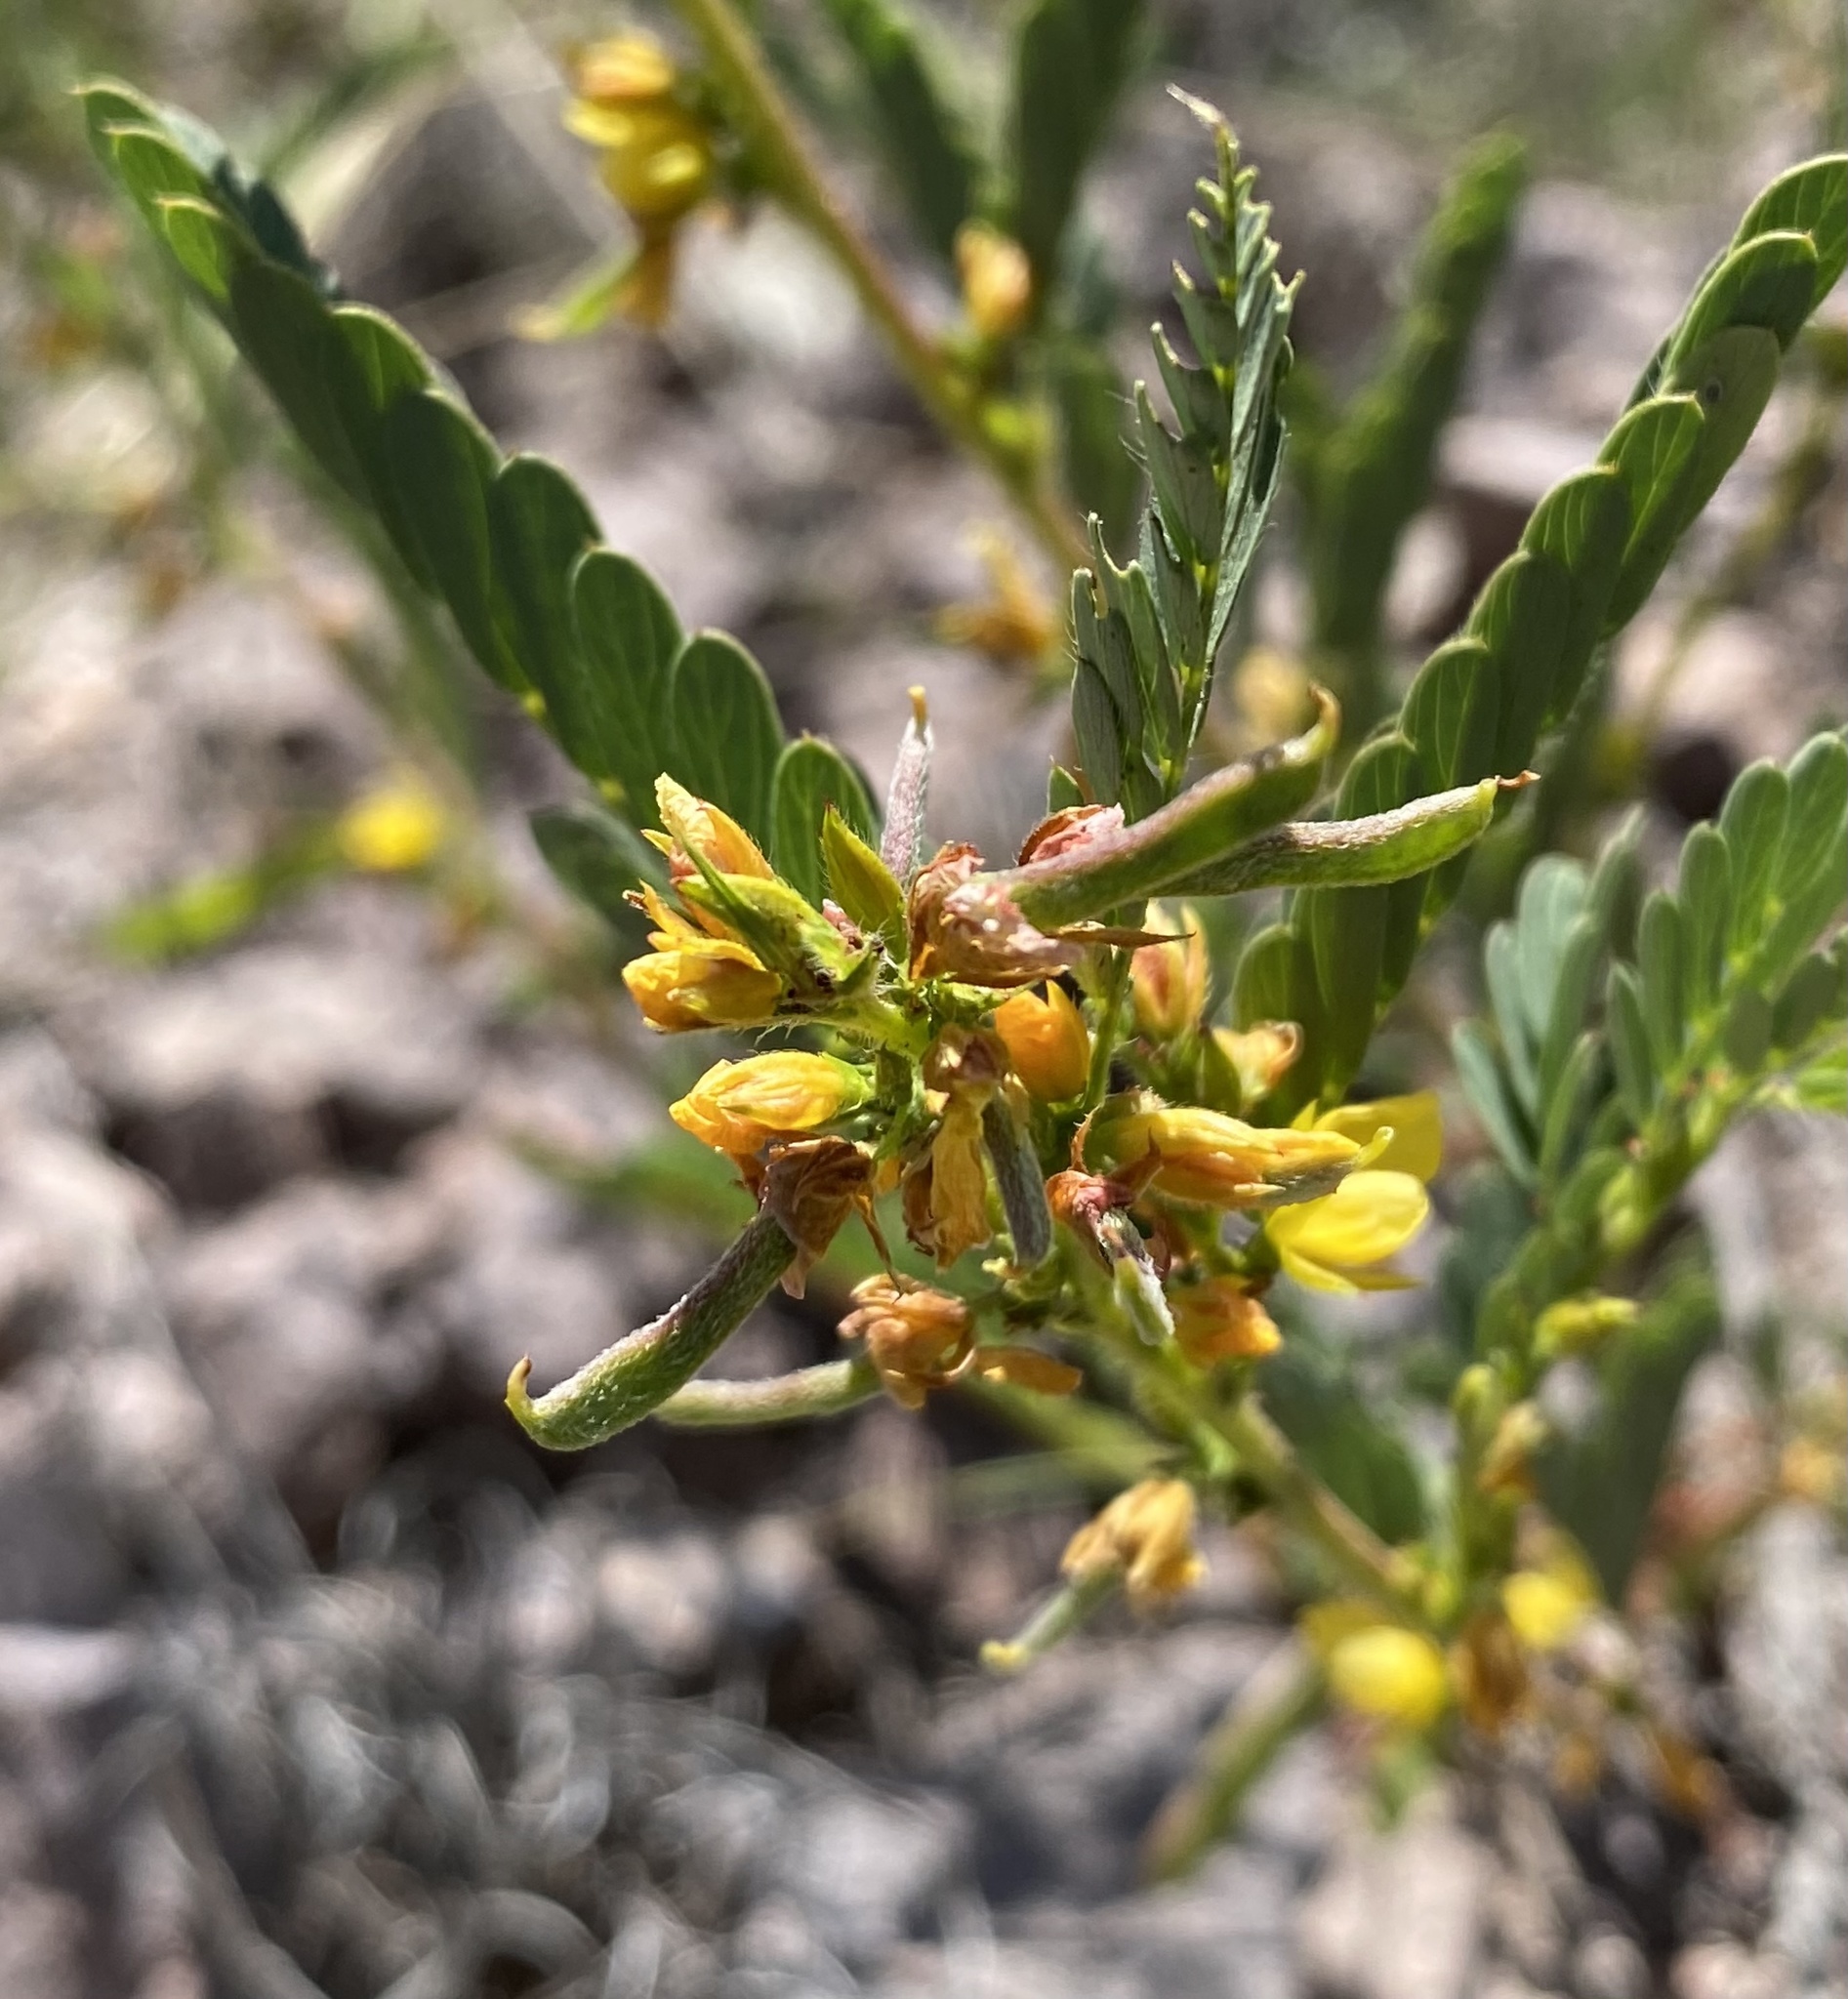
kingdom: Plantae
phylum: Tracheophyta
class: Magnoliopsida
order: Fabales
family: Fabaceae
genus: Chamaecrista
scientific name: Chamaecrista nictitans
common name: Sensitive cassia
